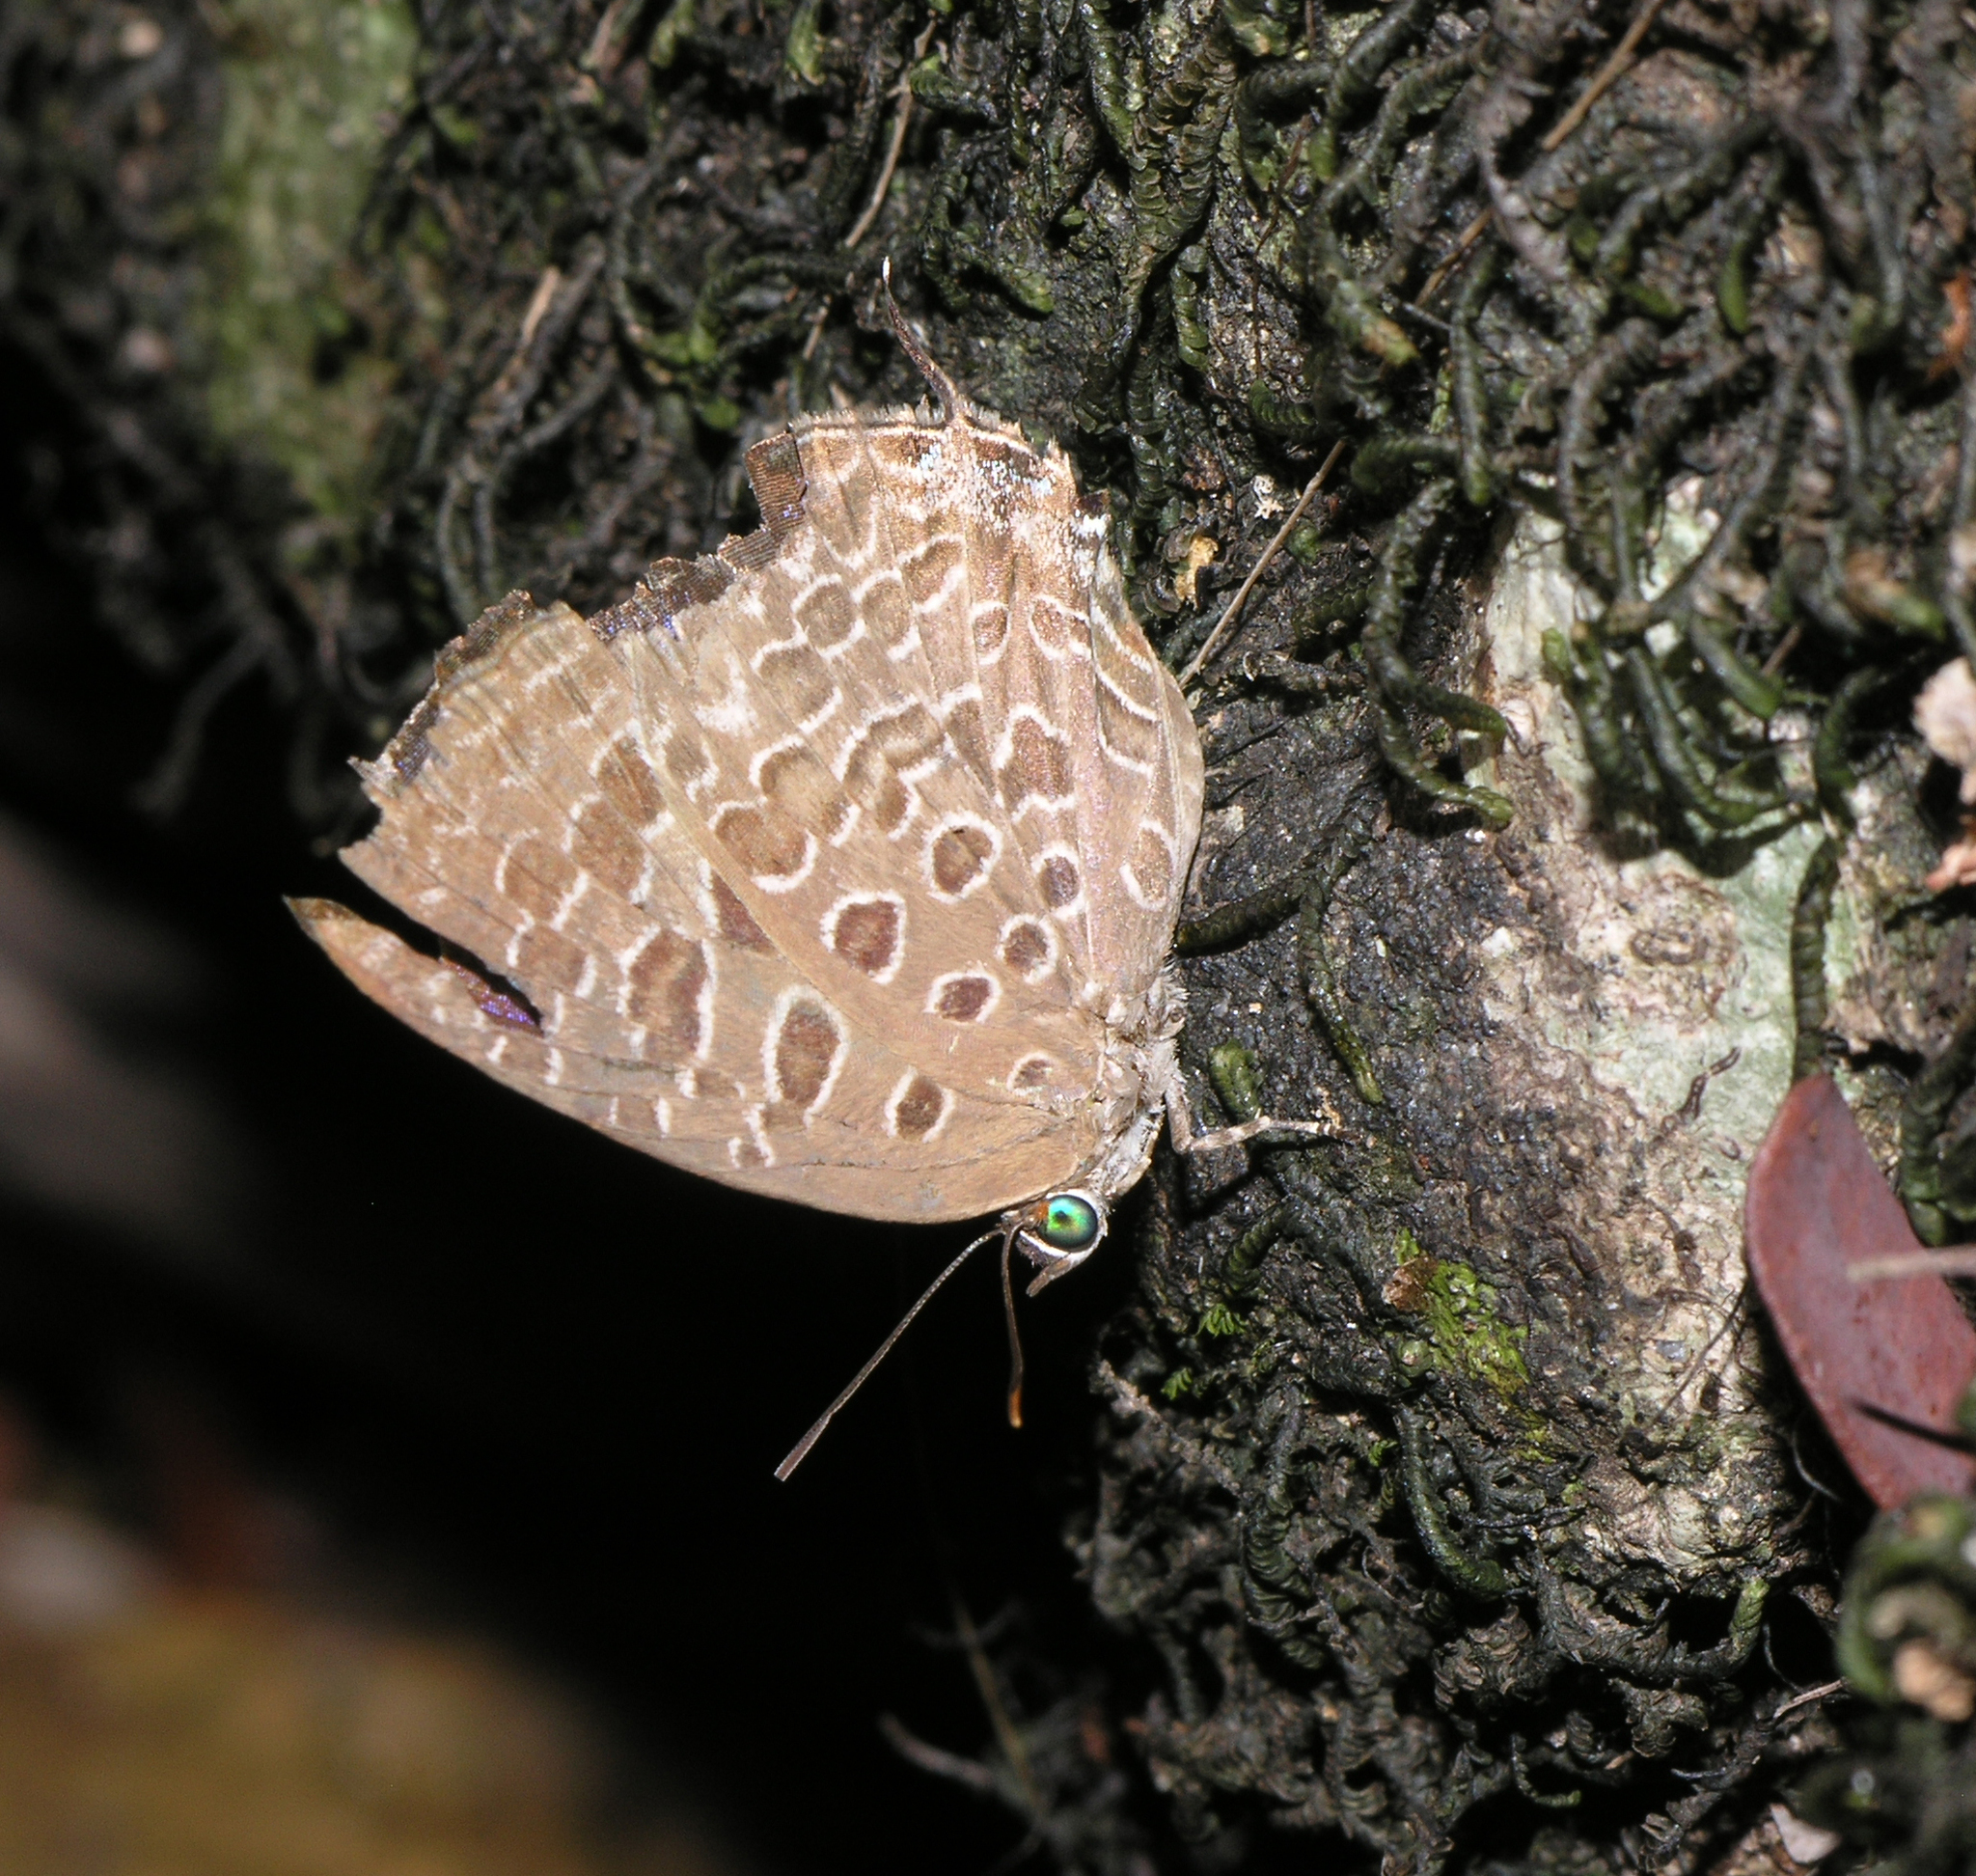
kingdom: Animalia
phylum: Arthropoda
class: Insecta
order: Lepidoptera
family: Lycaenidae
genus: Arhopala
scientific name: Arhopala alitaeus
